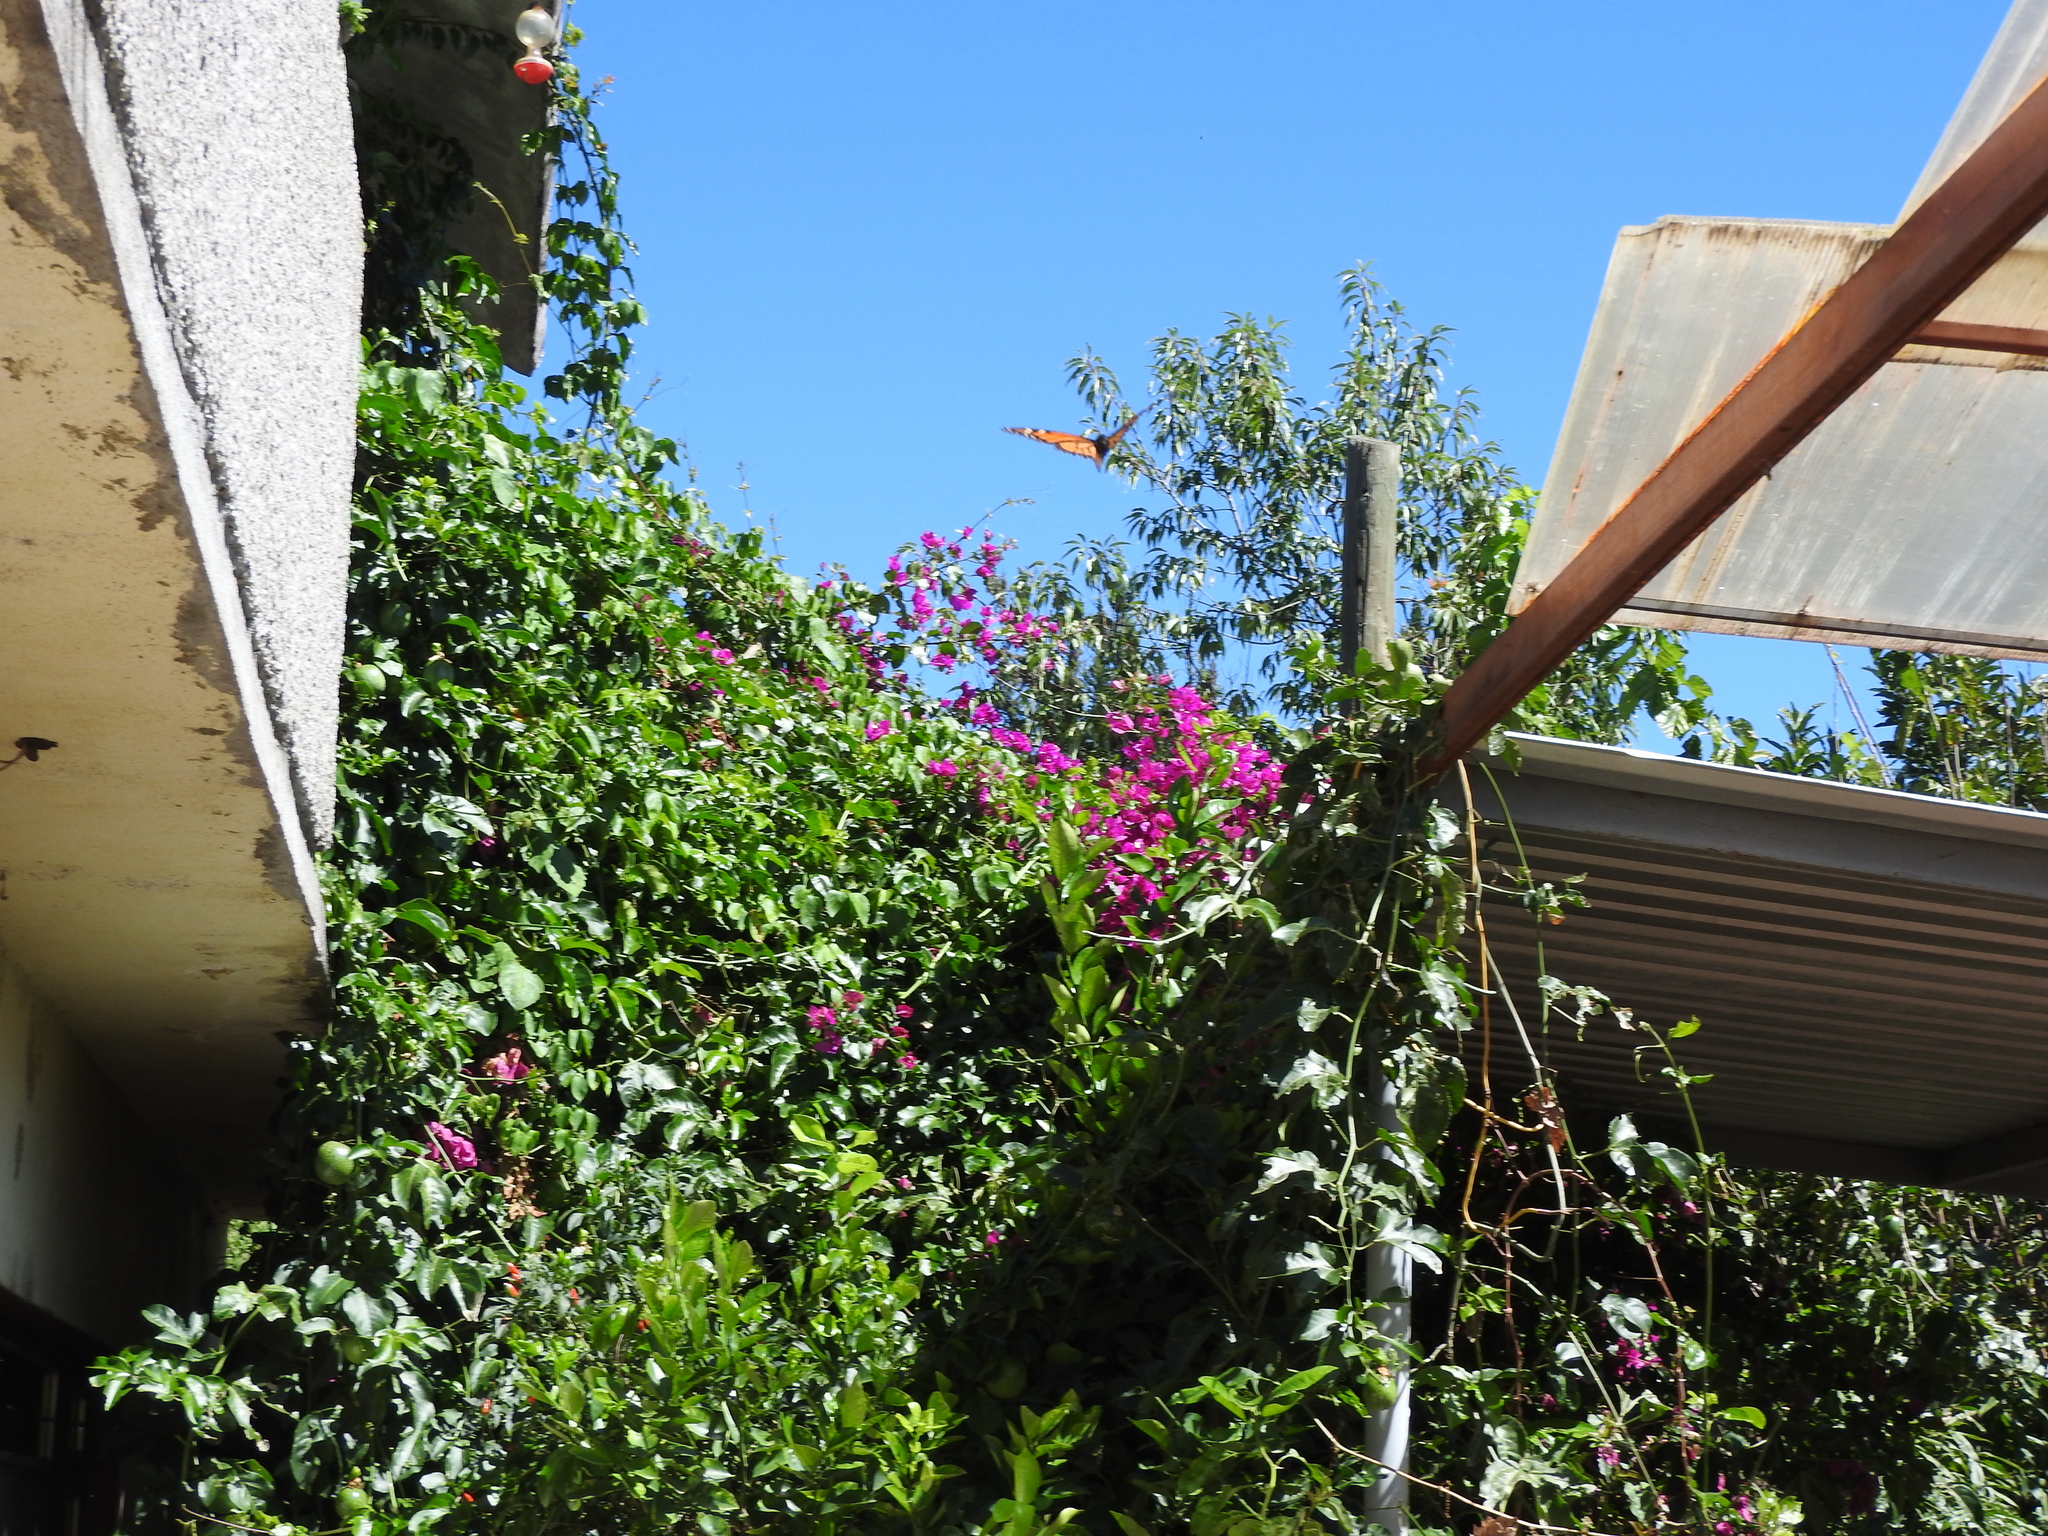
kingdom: Animalia
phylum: Arthropoda
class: Insecta
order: Lepidoptera
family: Nymphalidae
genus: Danaus
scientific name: Danaus plexippus
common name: Monarch
